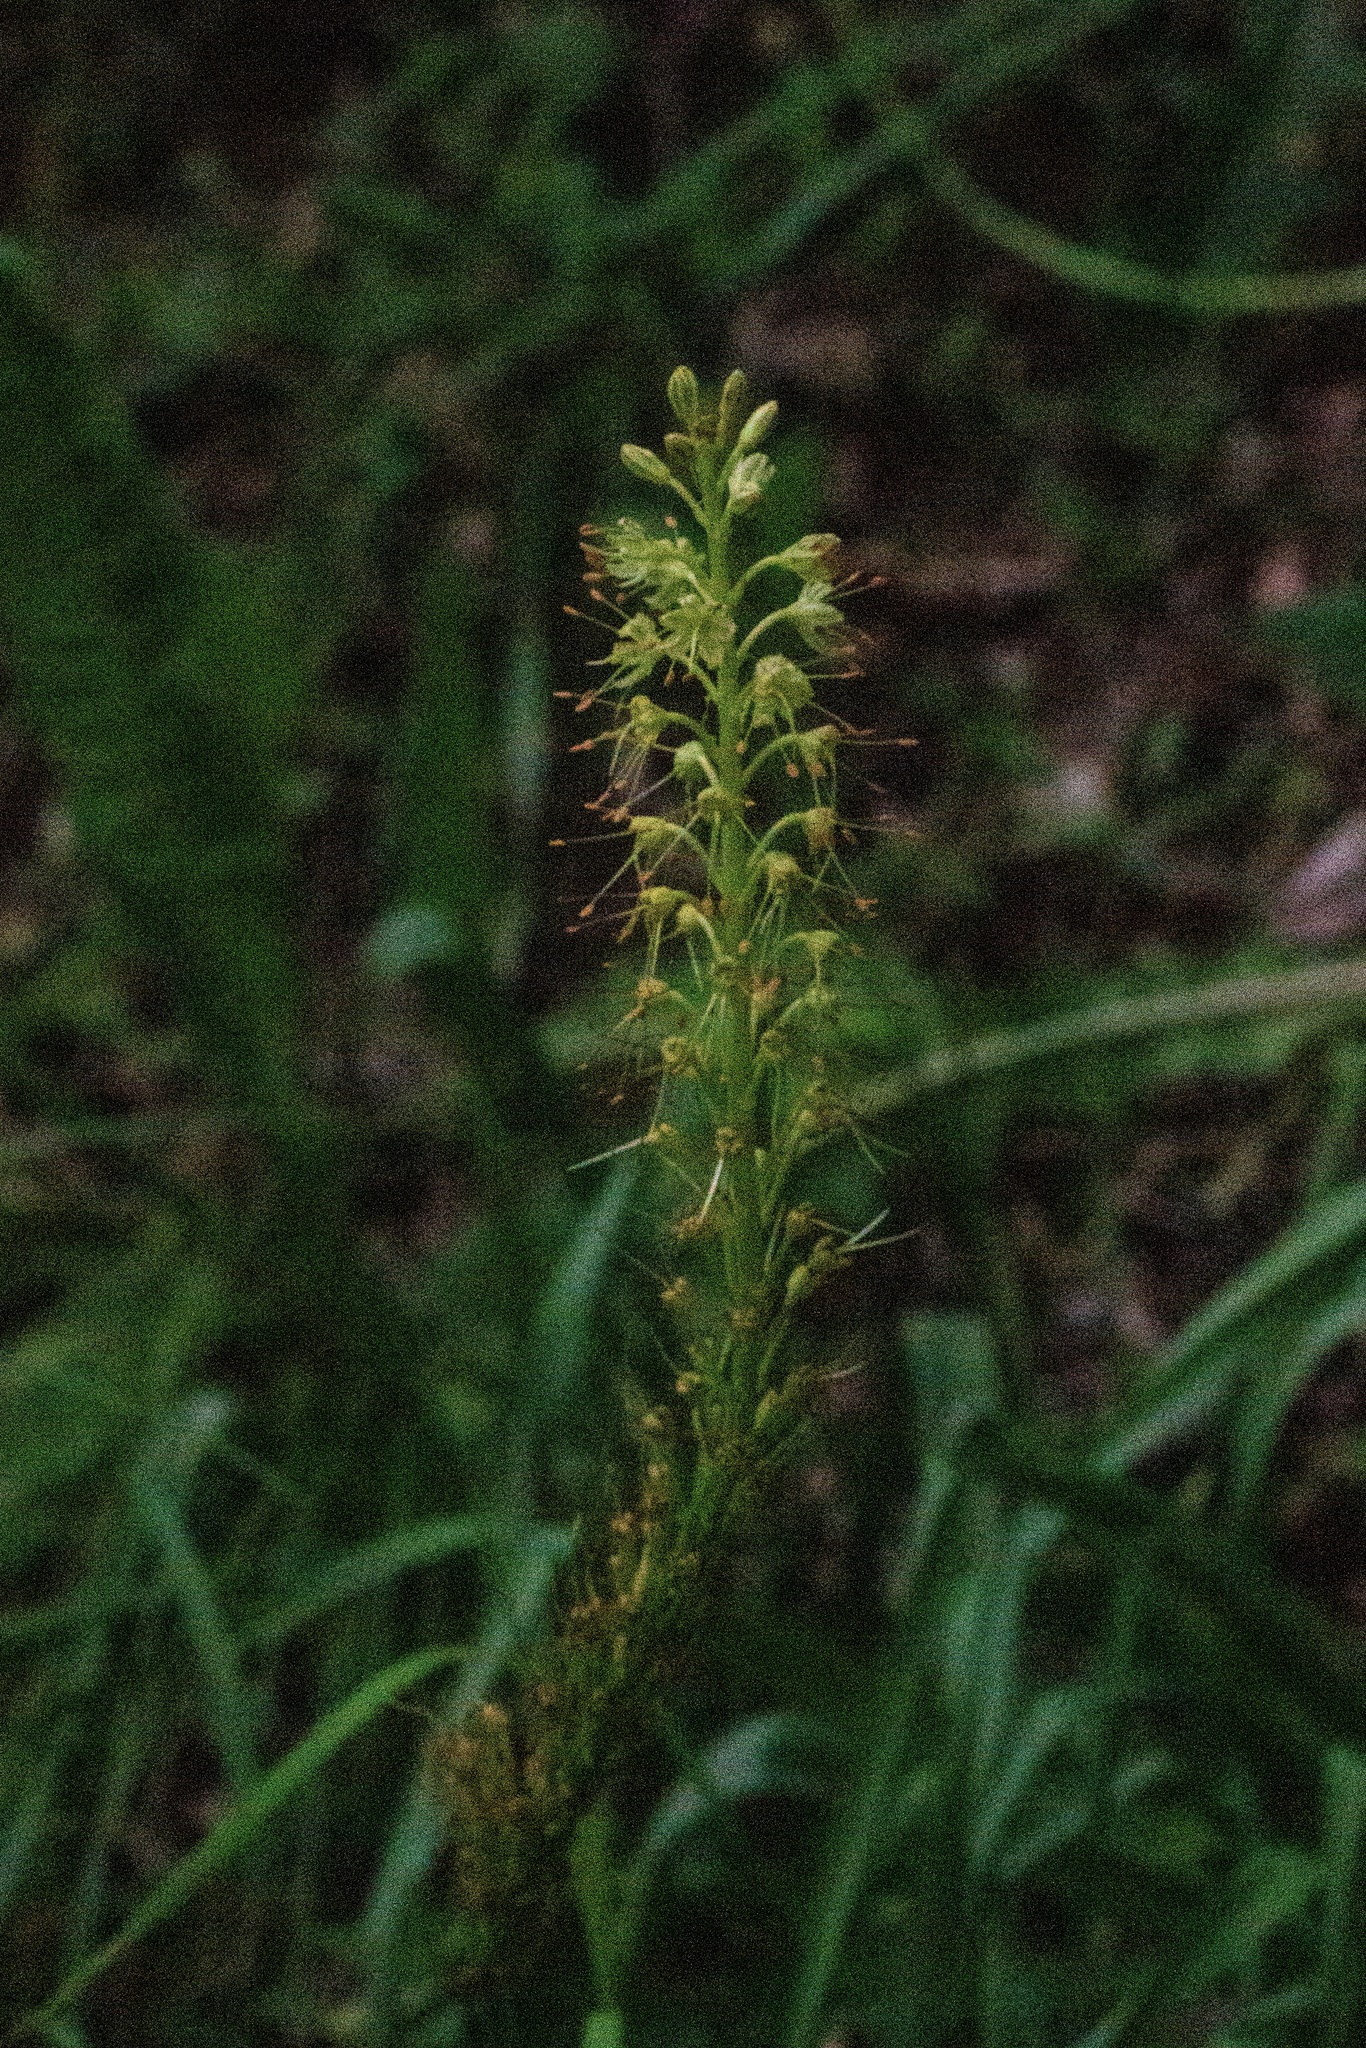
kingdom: Plantae
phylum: Tracheophyta
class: Liliopsida
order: Asparagales
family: Asphodelaceae
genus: Eremurus
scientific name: Eremurus fuscus
